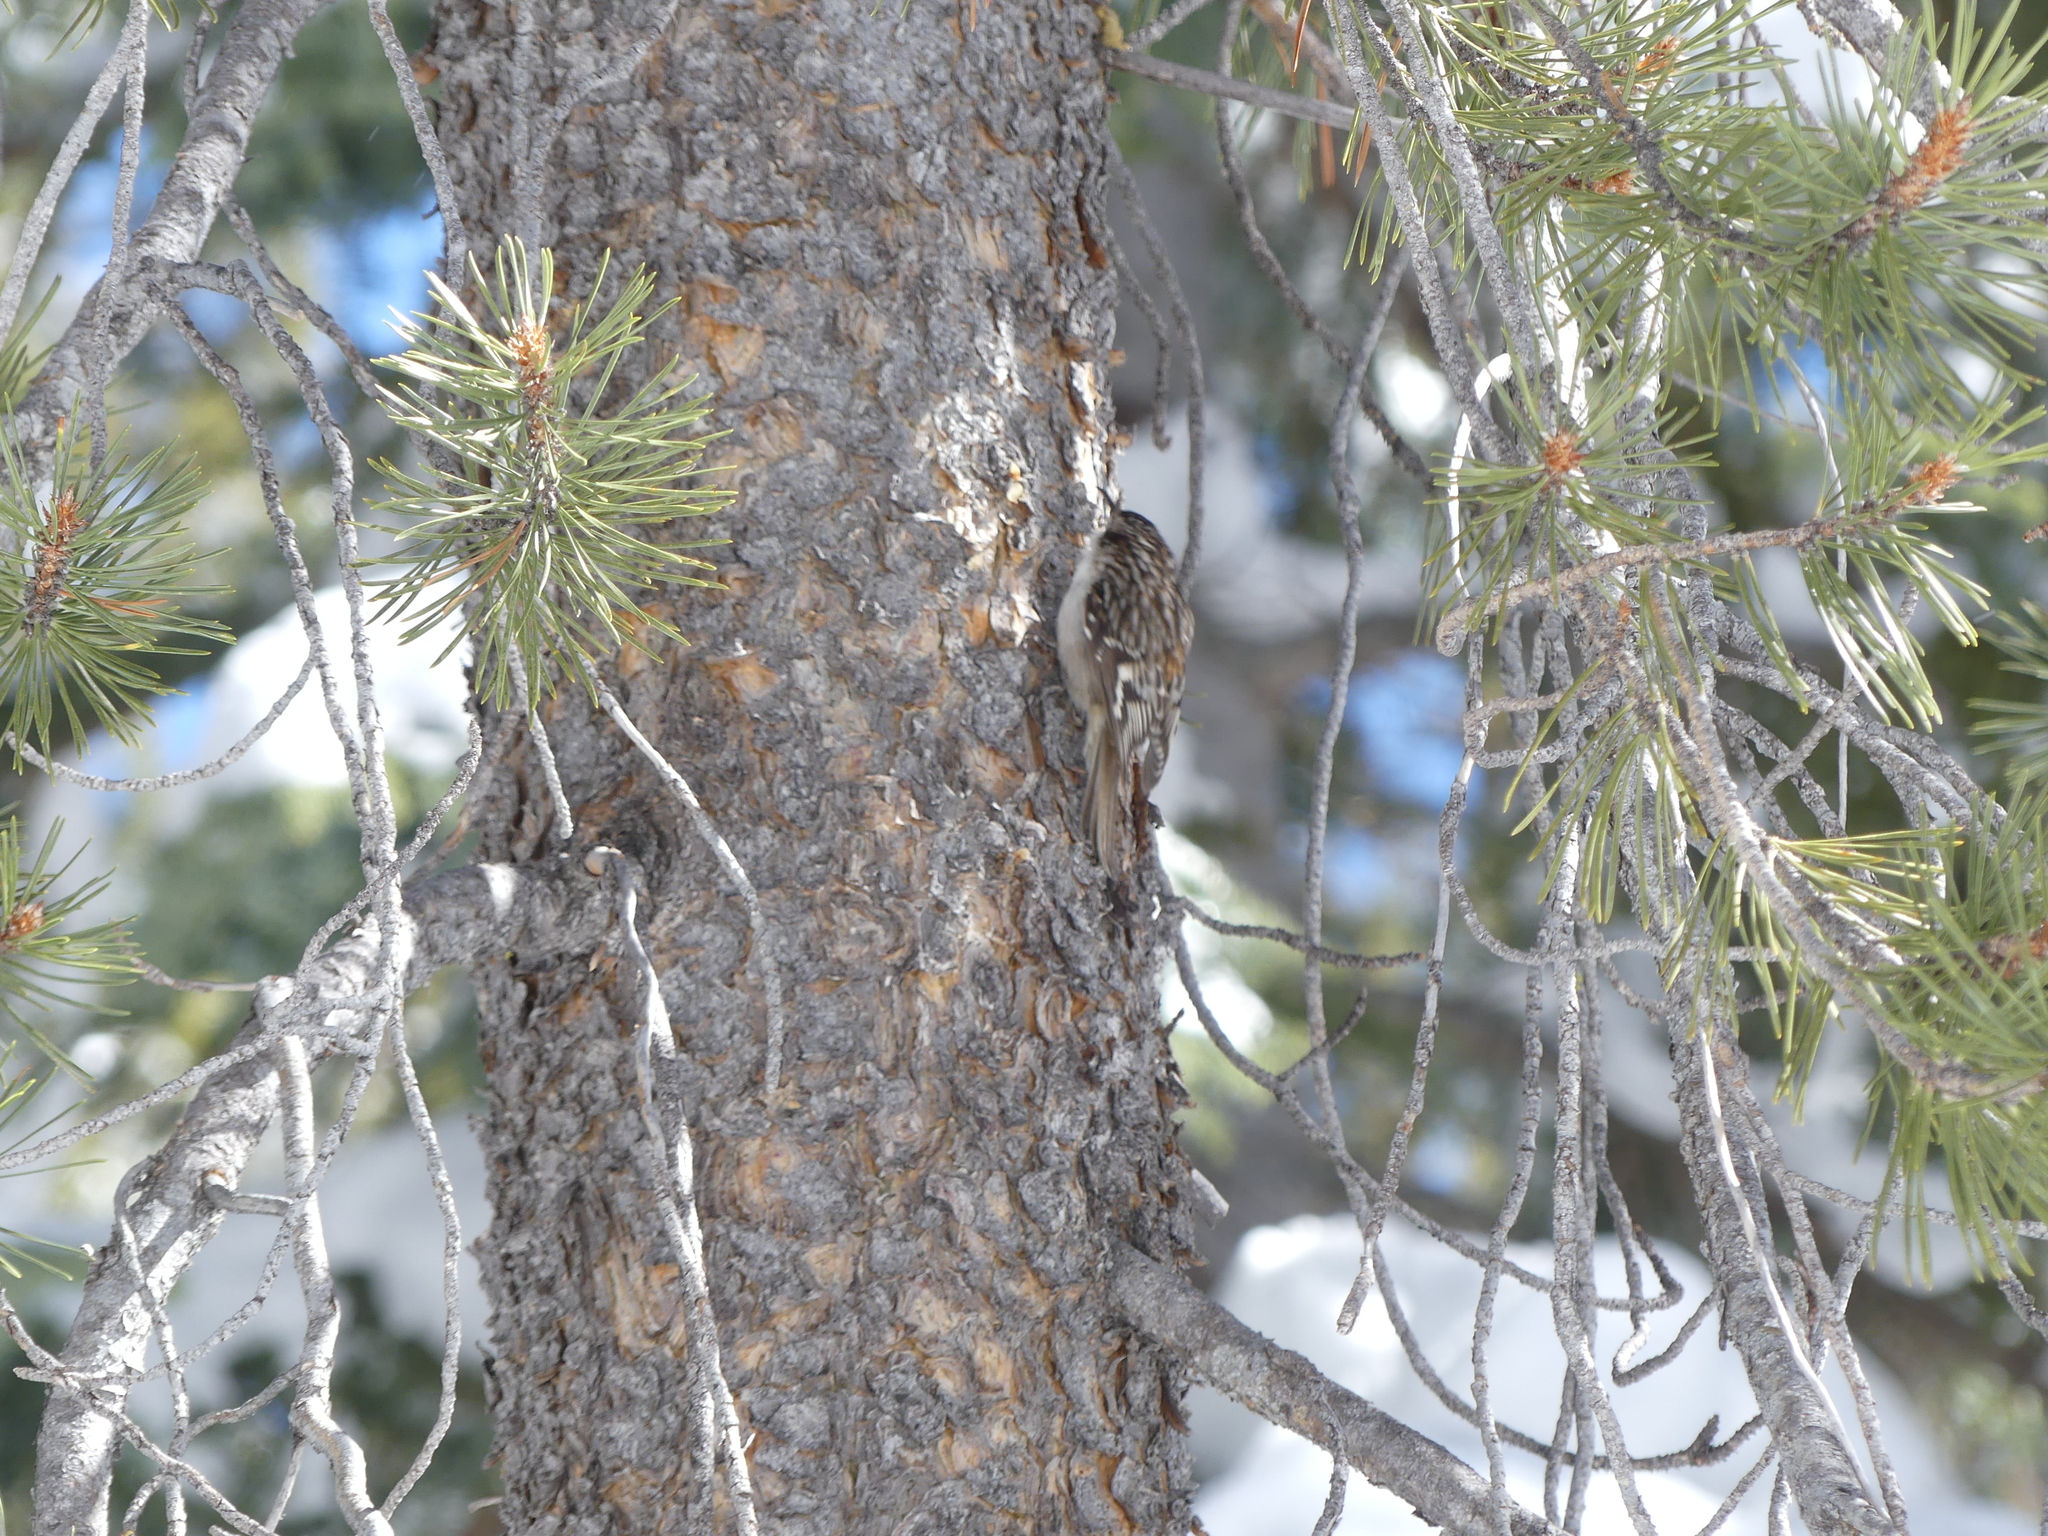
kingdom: Animalia
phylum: Chordata
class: Aves
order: Passeriformes
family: Certhiidae
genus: Certhia
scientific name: Certhia americana
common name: Brown creeper
